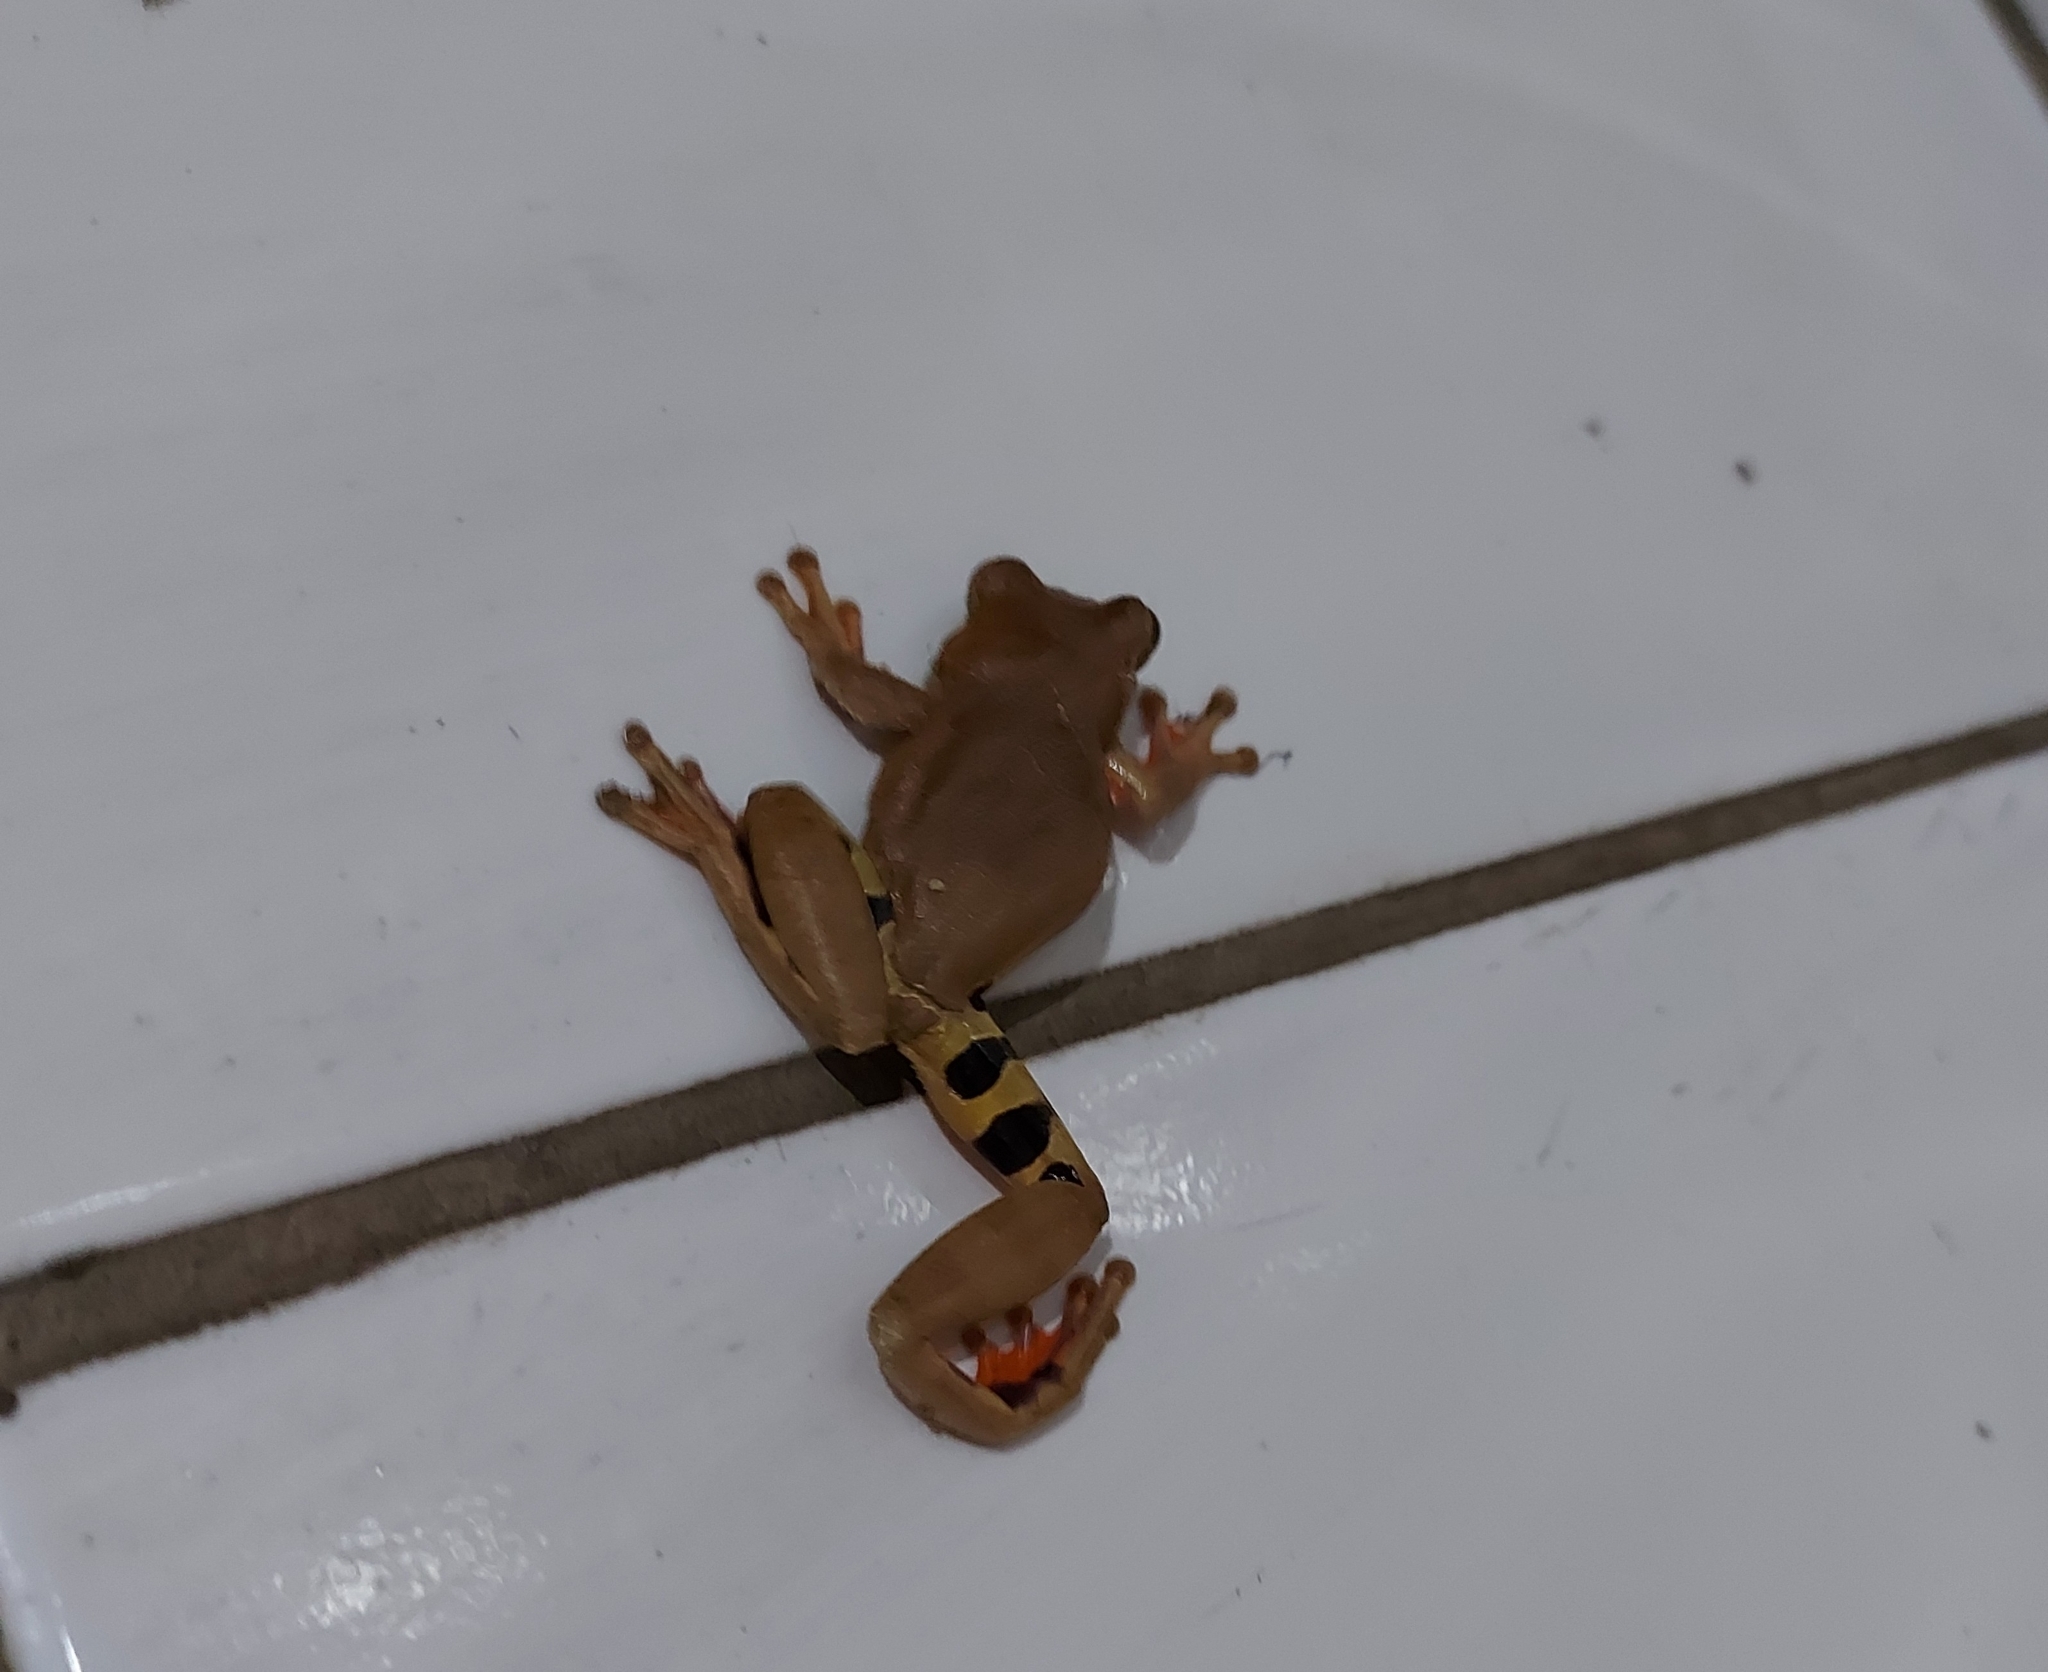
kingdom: Animalia
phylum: Chordata
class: Amphibia
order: Anura
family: Hylidae
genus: Dendropsophus
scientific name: Dendropsophus anceps
